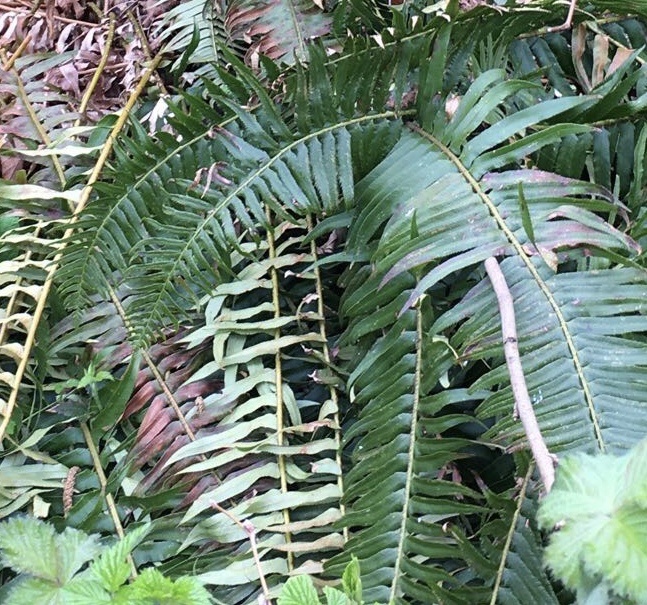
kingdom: Plantae
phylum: Tracheophyta
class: Polypodiopsida
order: Polypodiales
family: Dryopteridaceae
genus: Polystichum
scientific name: Polystichum munitum
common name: Western sword-fern
